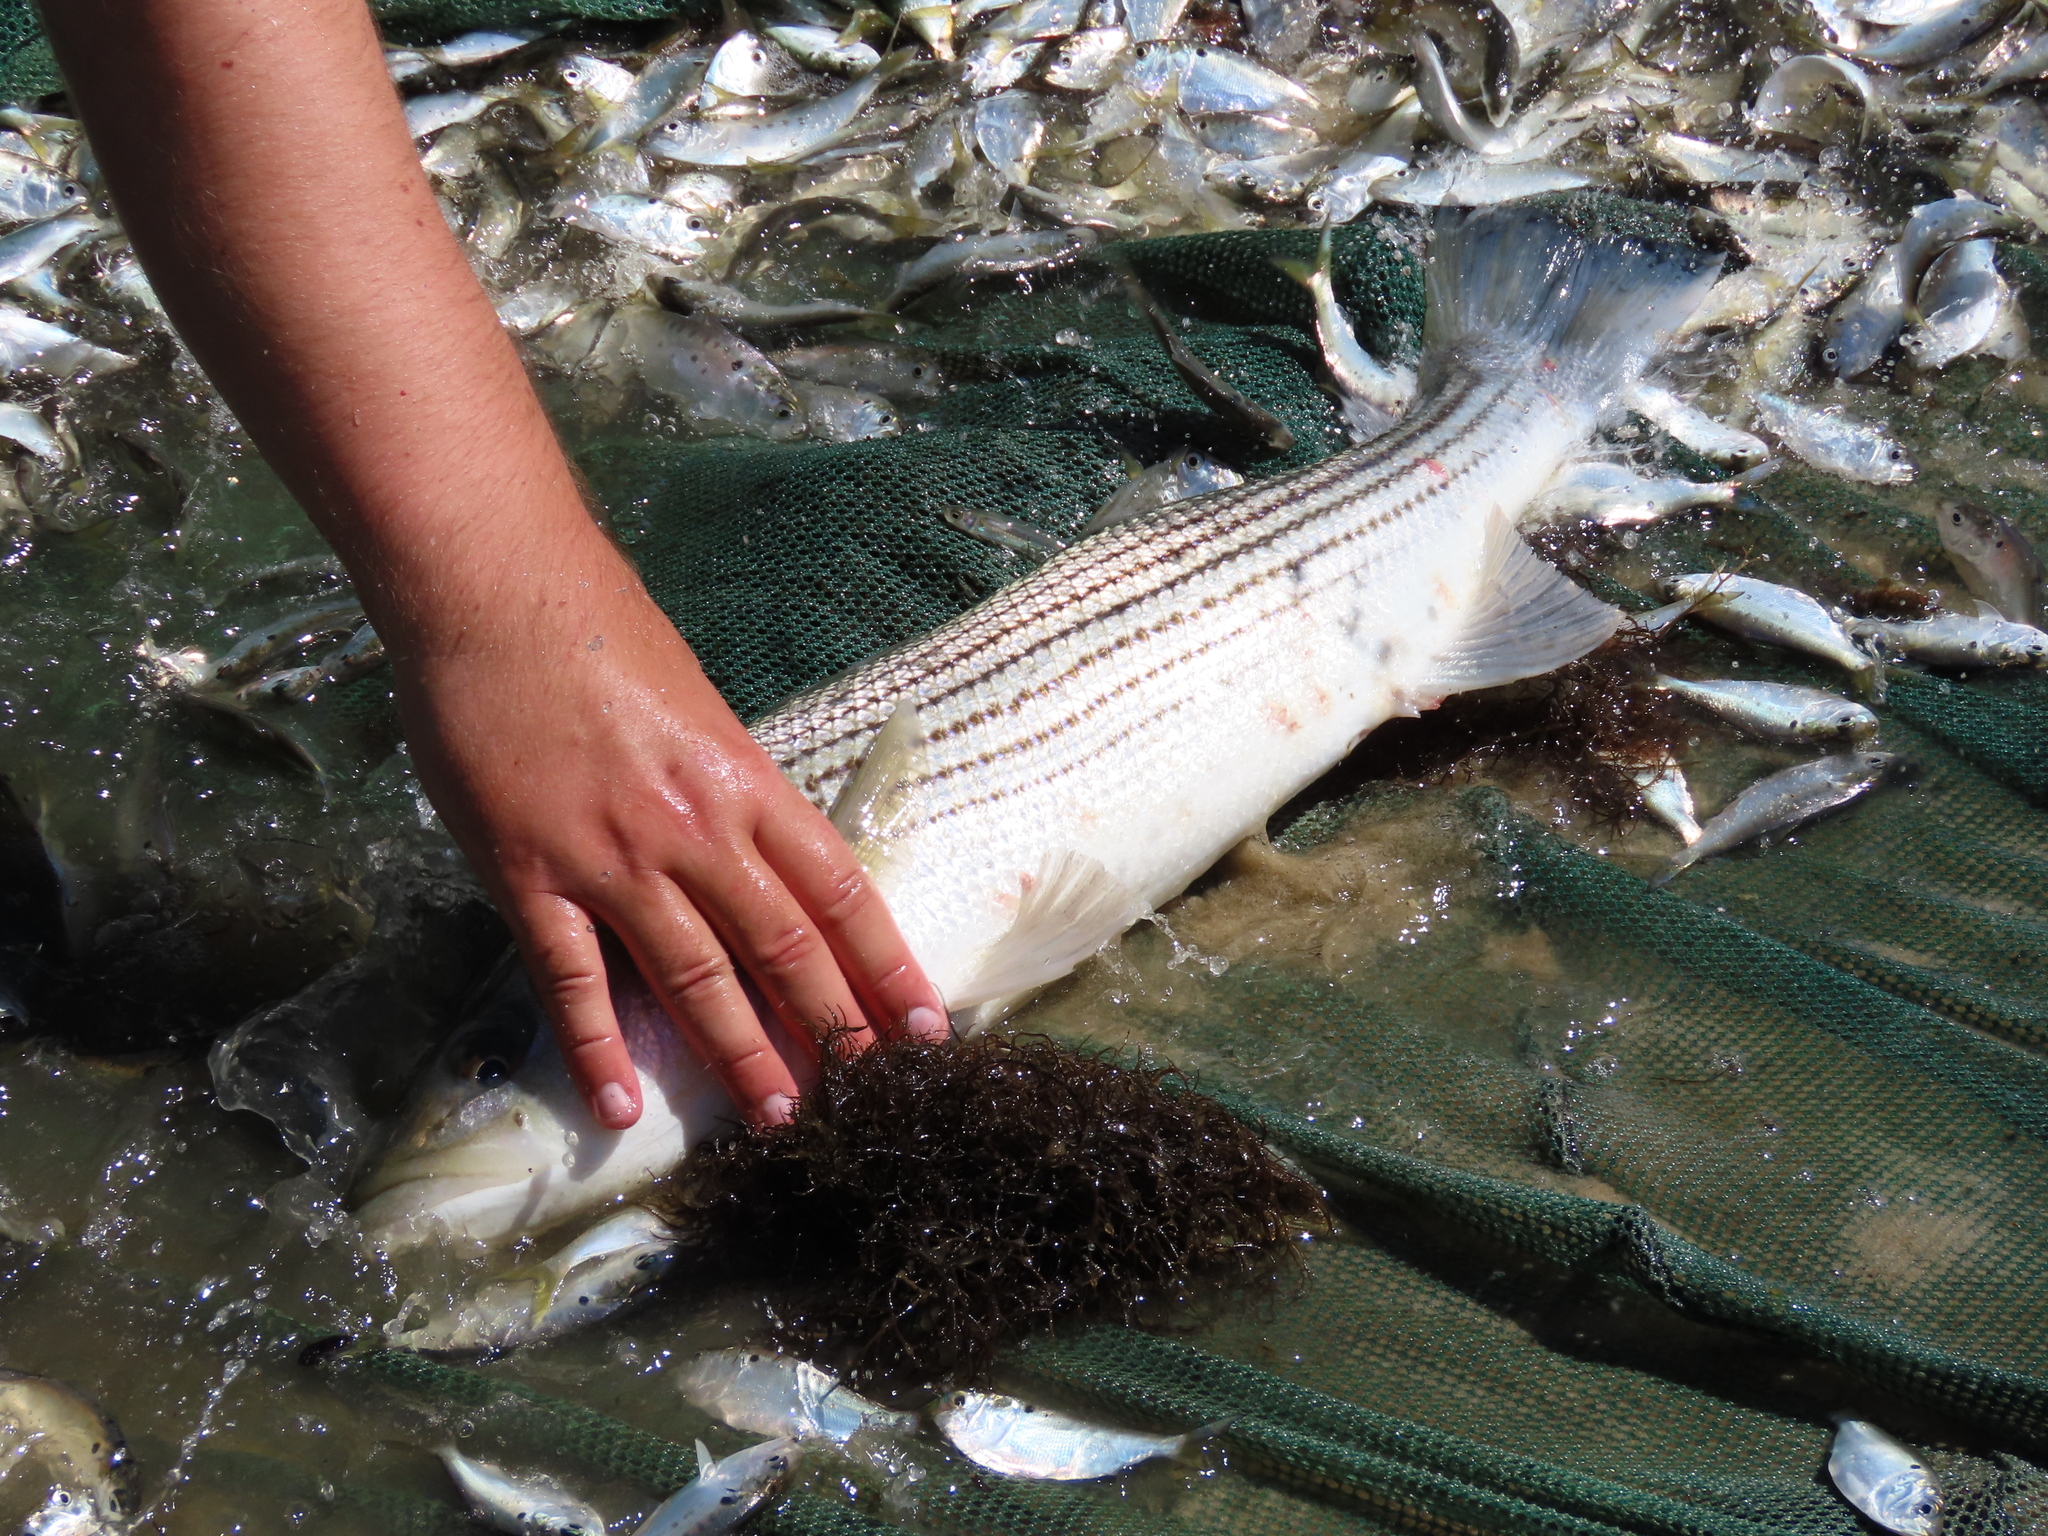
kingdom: Animalia
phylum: Chordata
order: Perciformes
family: Moronidae
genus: Morone
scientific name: Morone saxatilis
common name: Striped bass
